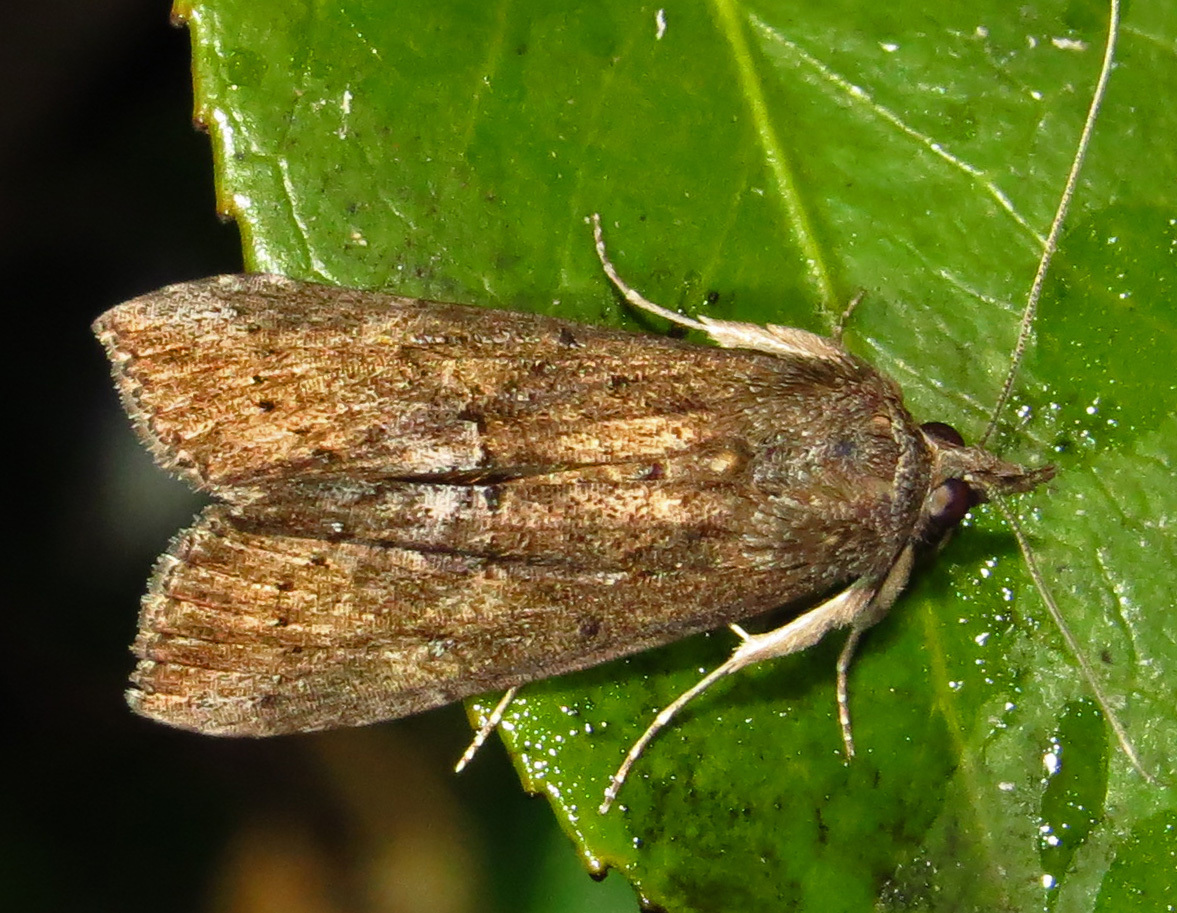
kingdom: Animalia
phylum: Arthropoda
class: Insecta
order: Lepidoptera
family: Erebidae
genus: Hypena
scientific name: Hypena scabra
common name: Green cloverworm
